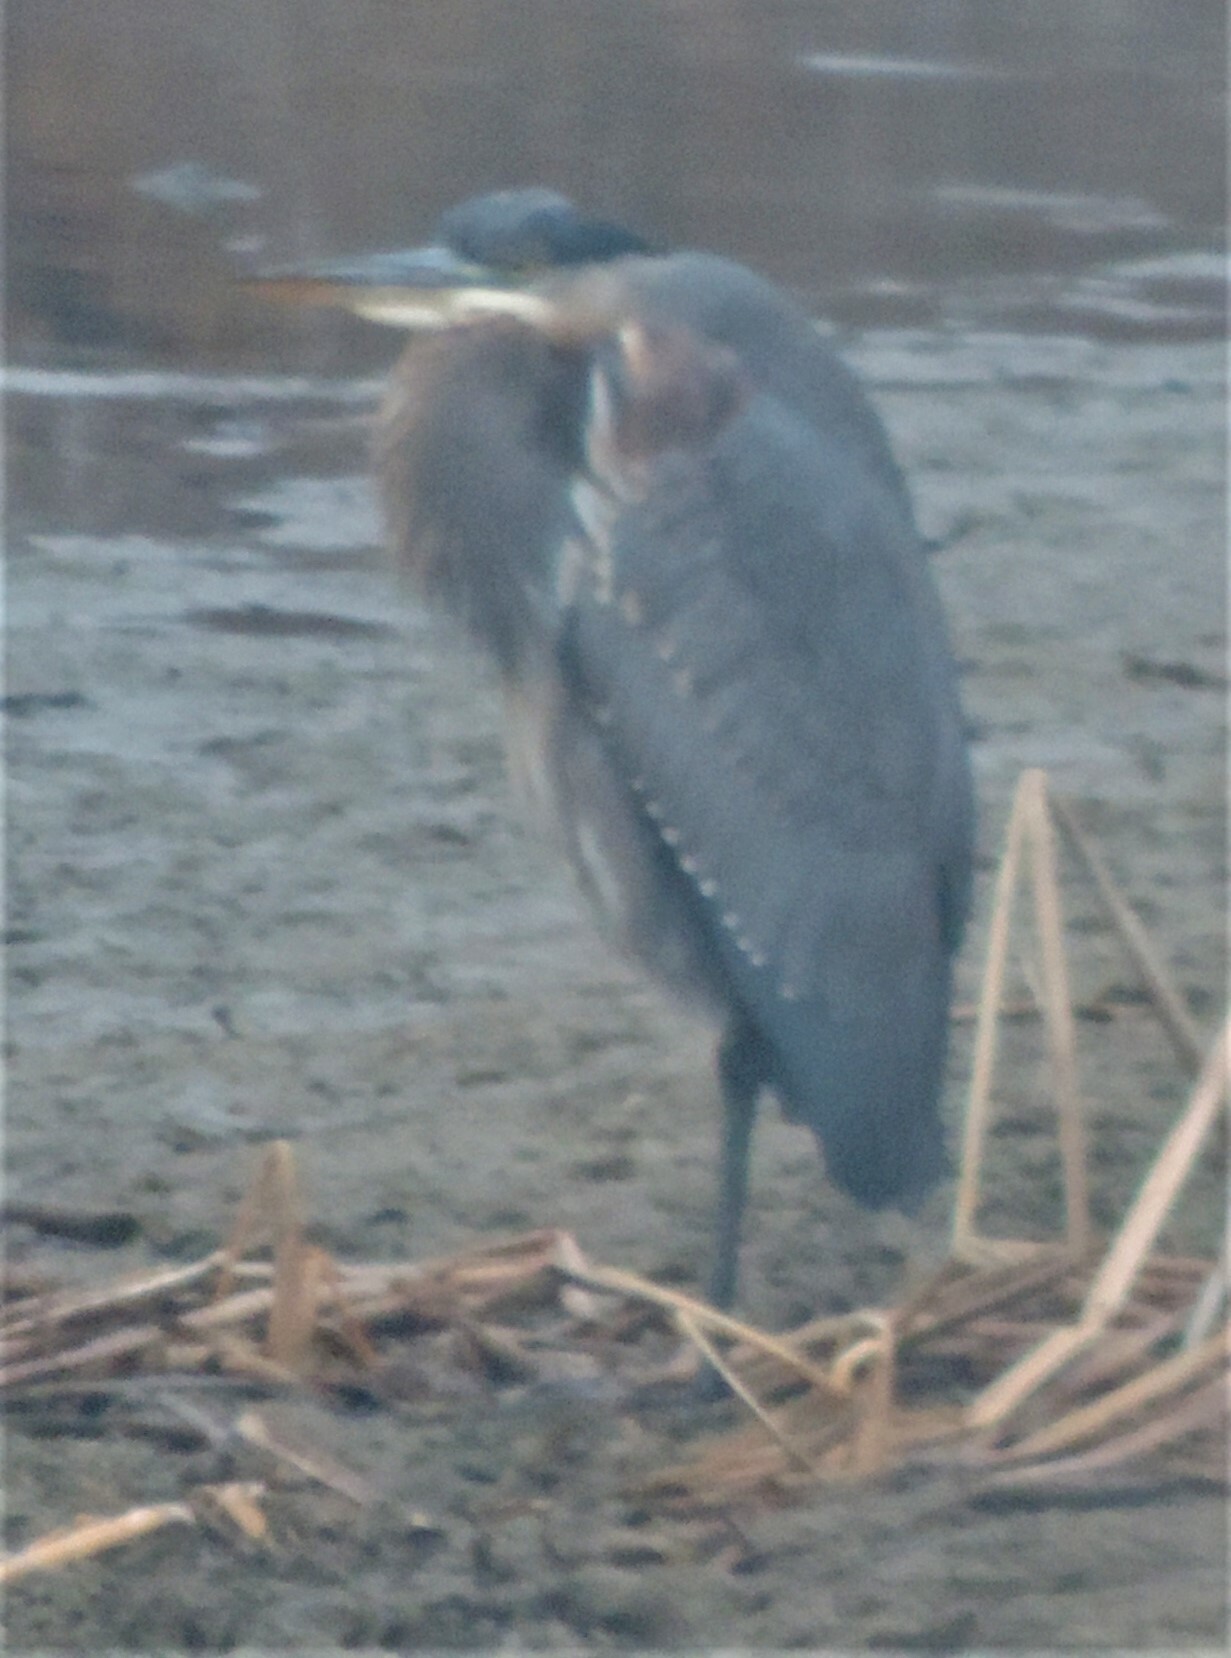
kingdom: Animalia
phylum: Chordata
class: Aves
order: Pelecaniformes
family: Ardeidae
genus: Ardea
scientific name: Ardea herodias
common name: Great blue heron
